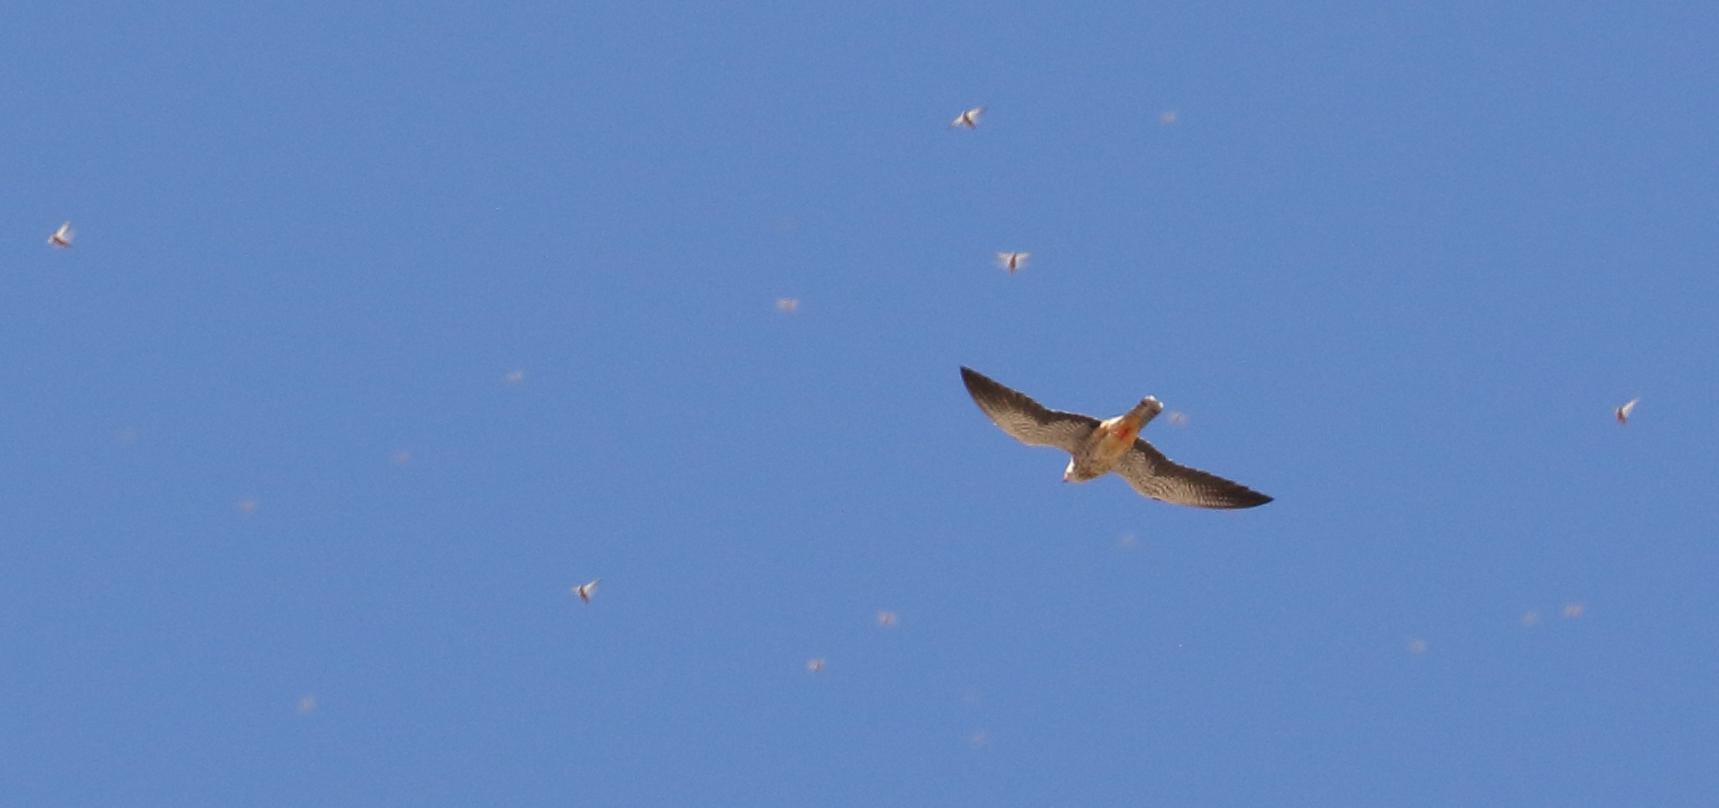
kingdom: Animalia
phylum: Chordata
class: Aves
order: Falconiformes
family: Falconidae
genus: Falco
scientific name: Falco amurensis
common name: Amur falcon
